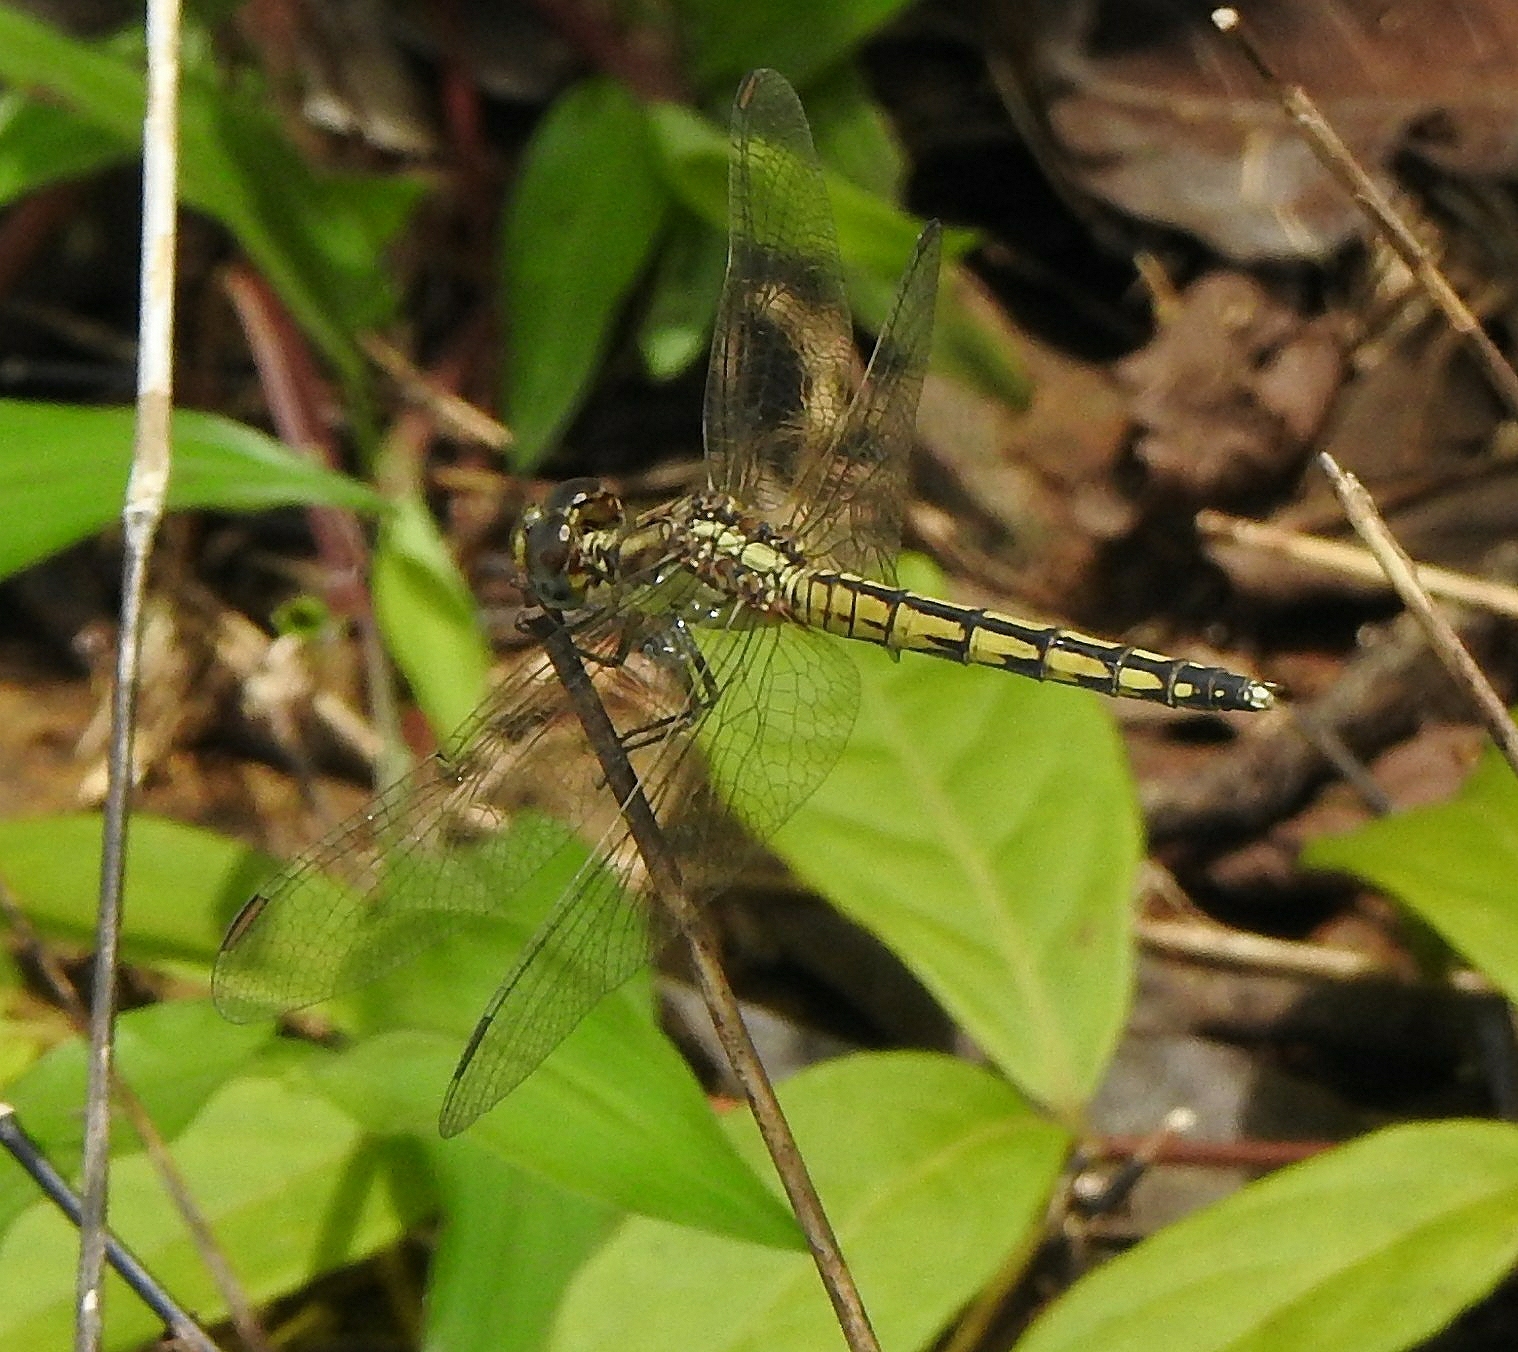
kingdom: Animalia
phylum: Arthropoda
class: Insecta
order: Odonata
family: Libellulidae
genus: Indothemis
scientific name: Indothemis carnatica
